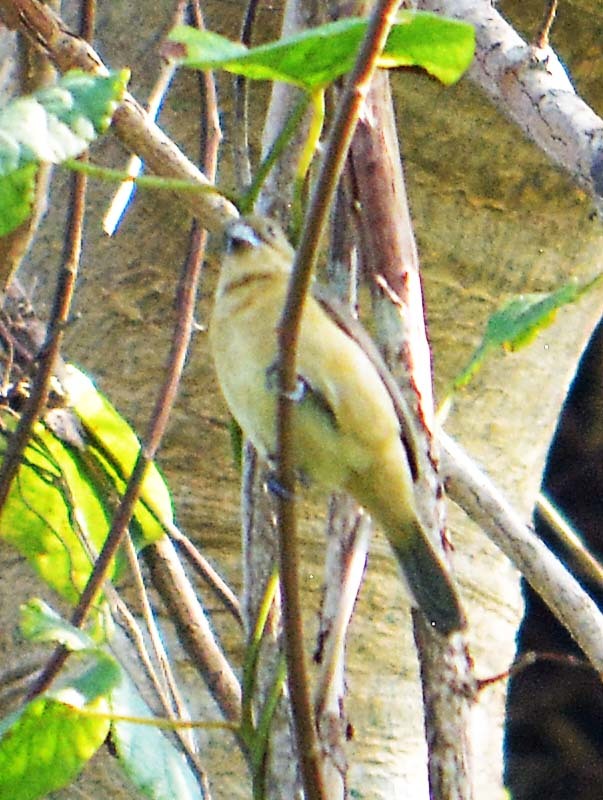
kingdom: Animalia
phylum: Chordata
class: Aves
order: Passeriformes
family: Thraupidae
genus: Sporophila
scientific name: Sporophila torqueola
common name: White-collared seedeater
